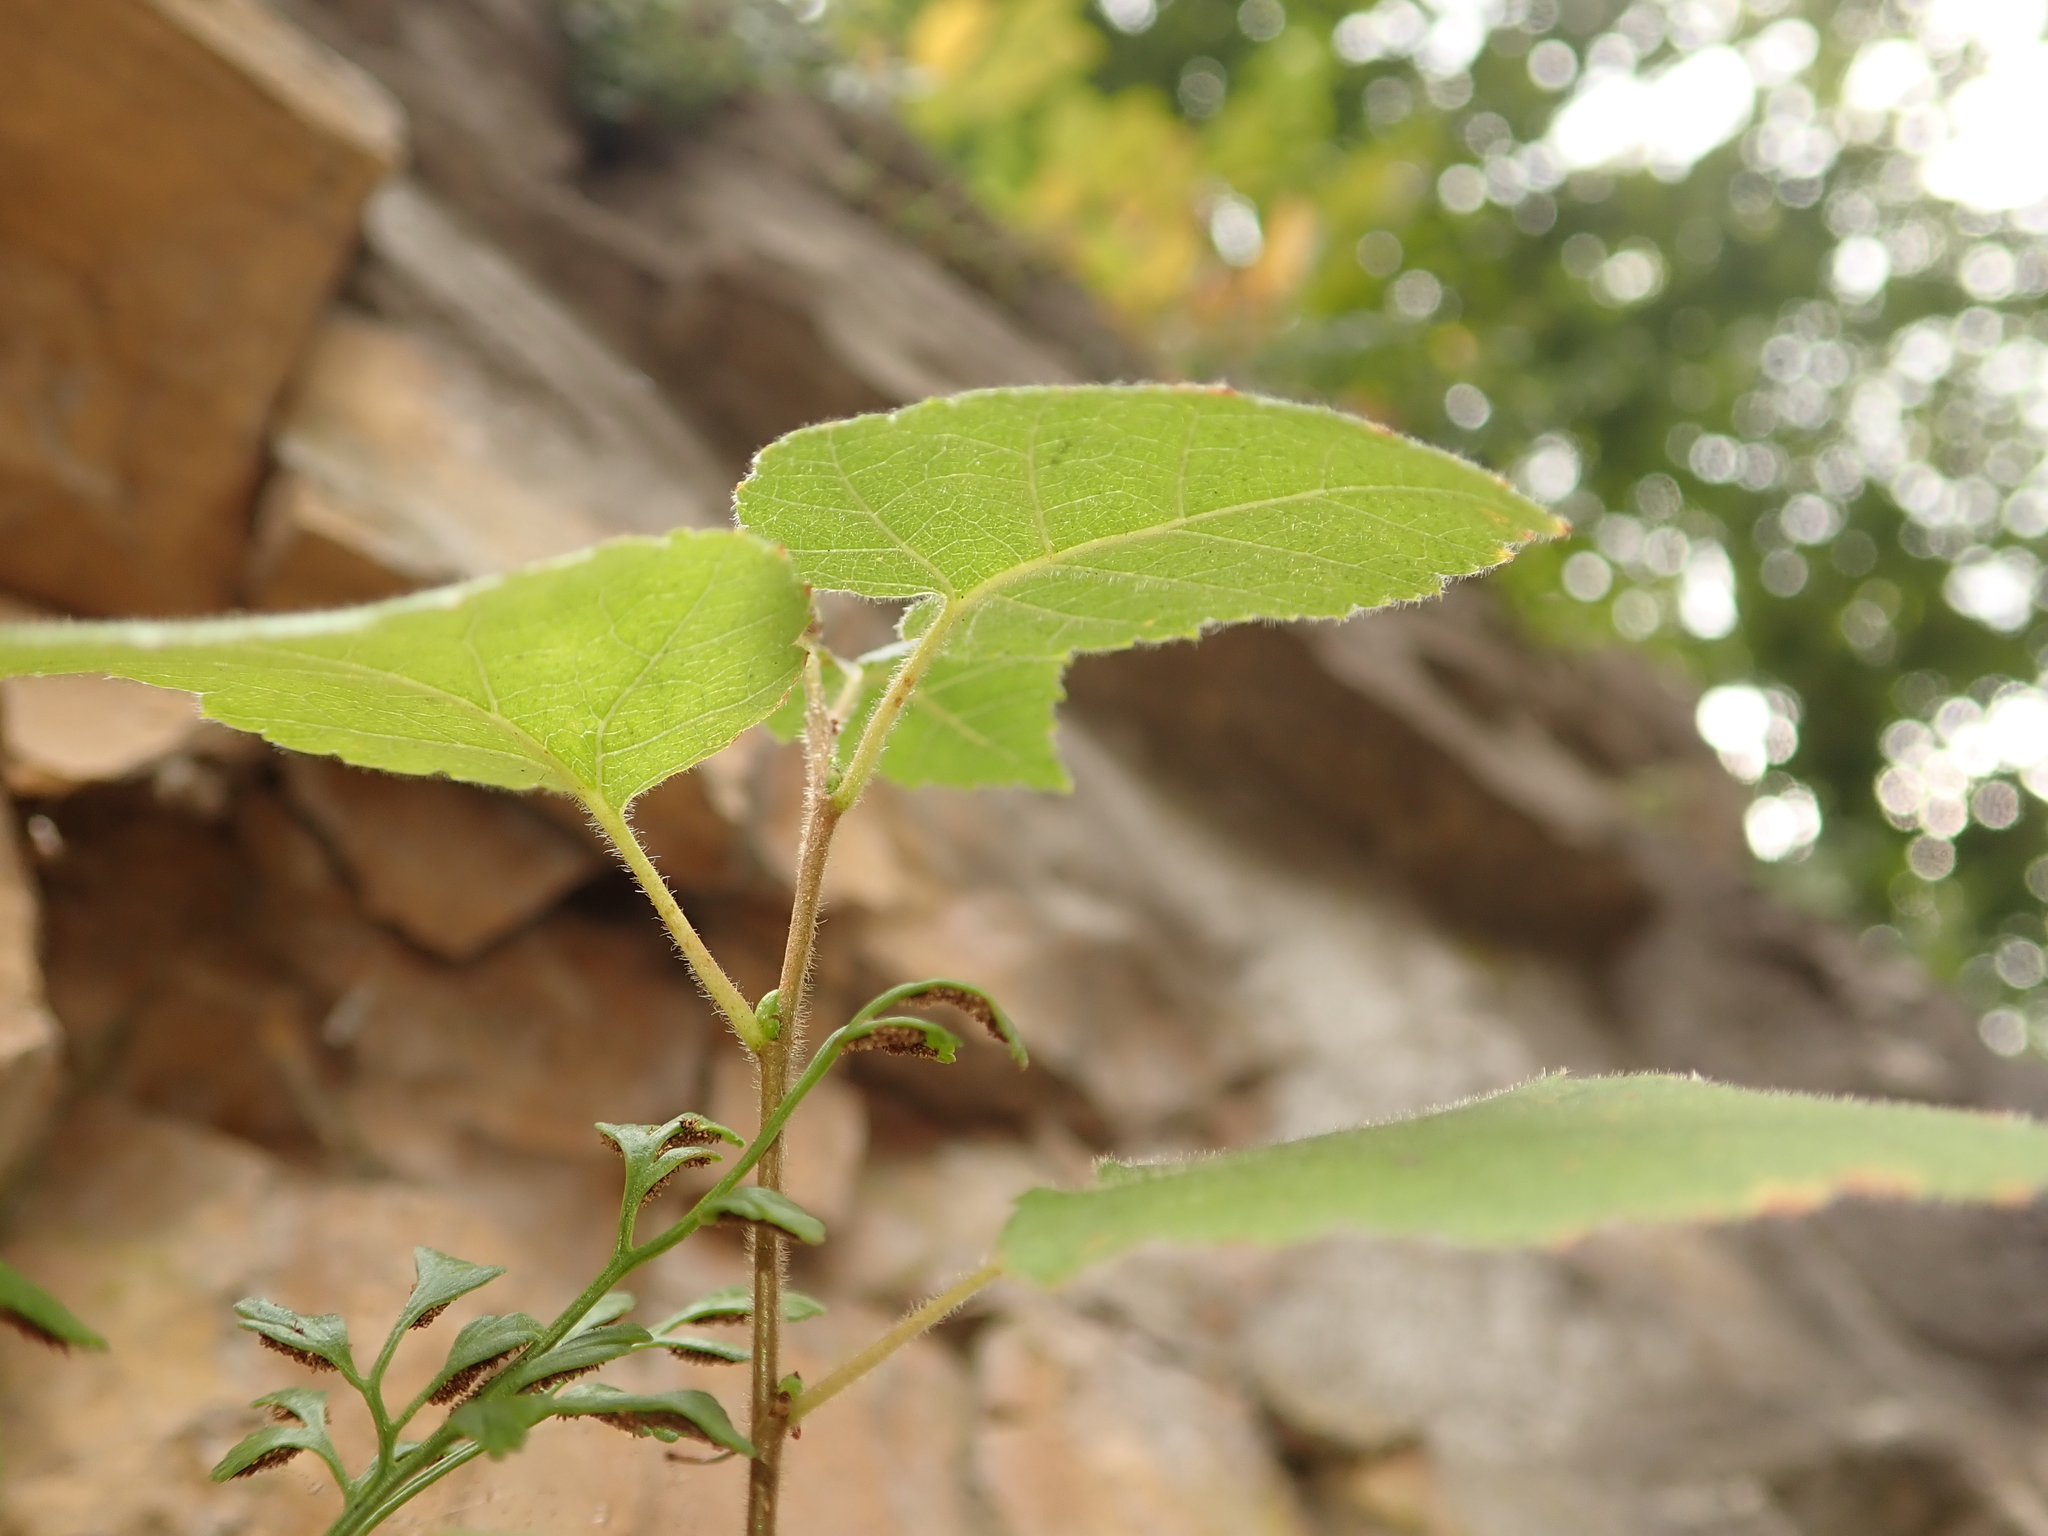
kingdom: Plantae
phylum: Tracheophyta
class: Magnoliopsida
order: Fagales
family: Betulaceae
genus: Betula
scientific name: Betula pendula
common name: Silver birch
